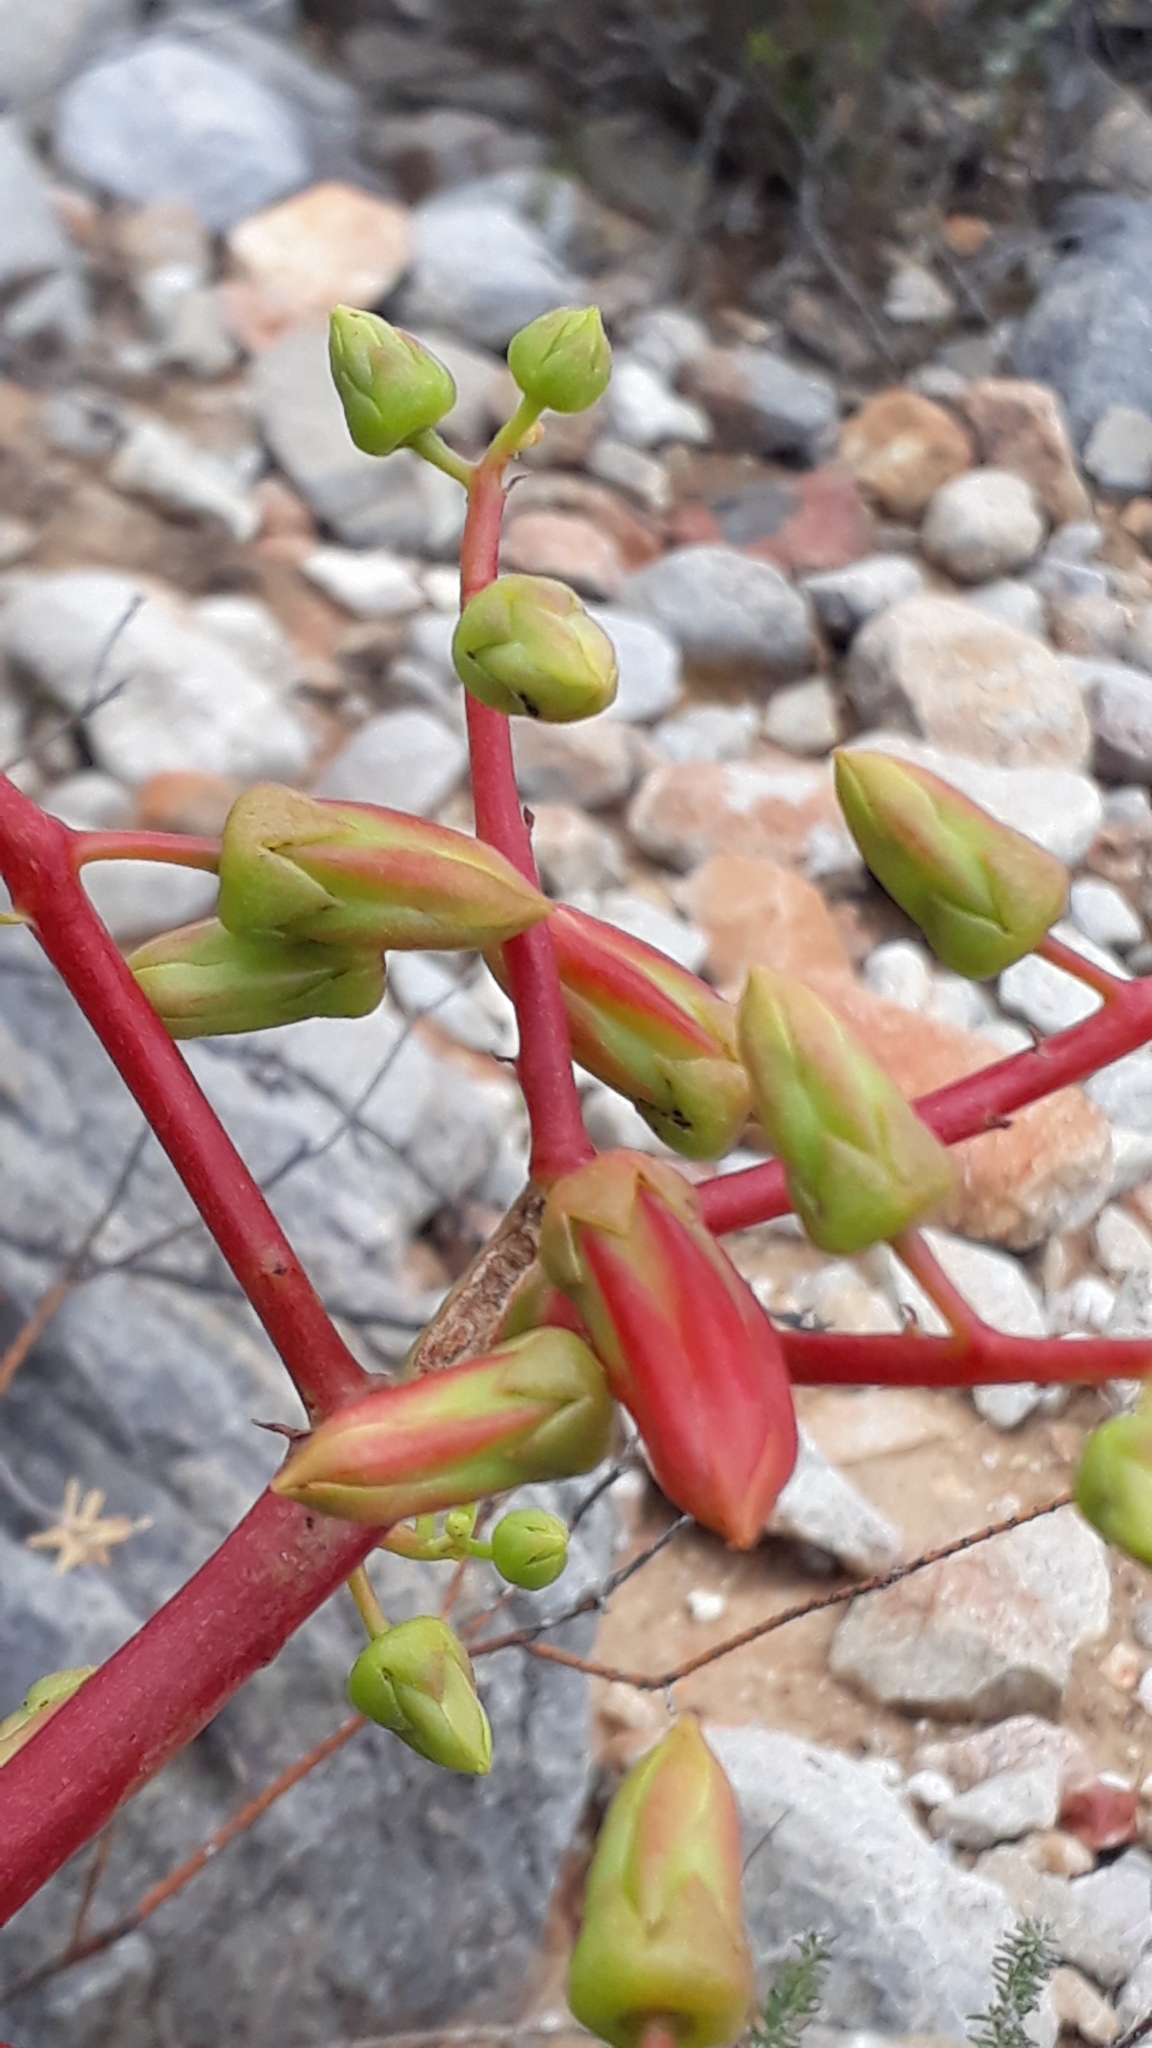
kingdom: Plantae
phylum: Tracheophyta
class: Magnoliopsida
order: Saxifragales
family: Crassulaceae
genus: Tylecodon
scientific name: Tylecodon paniculatus
